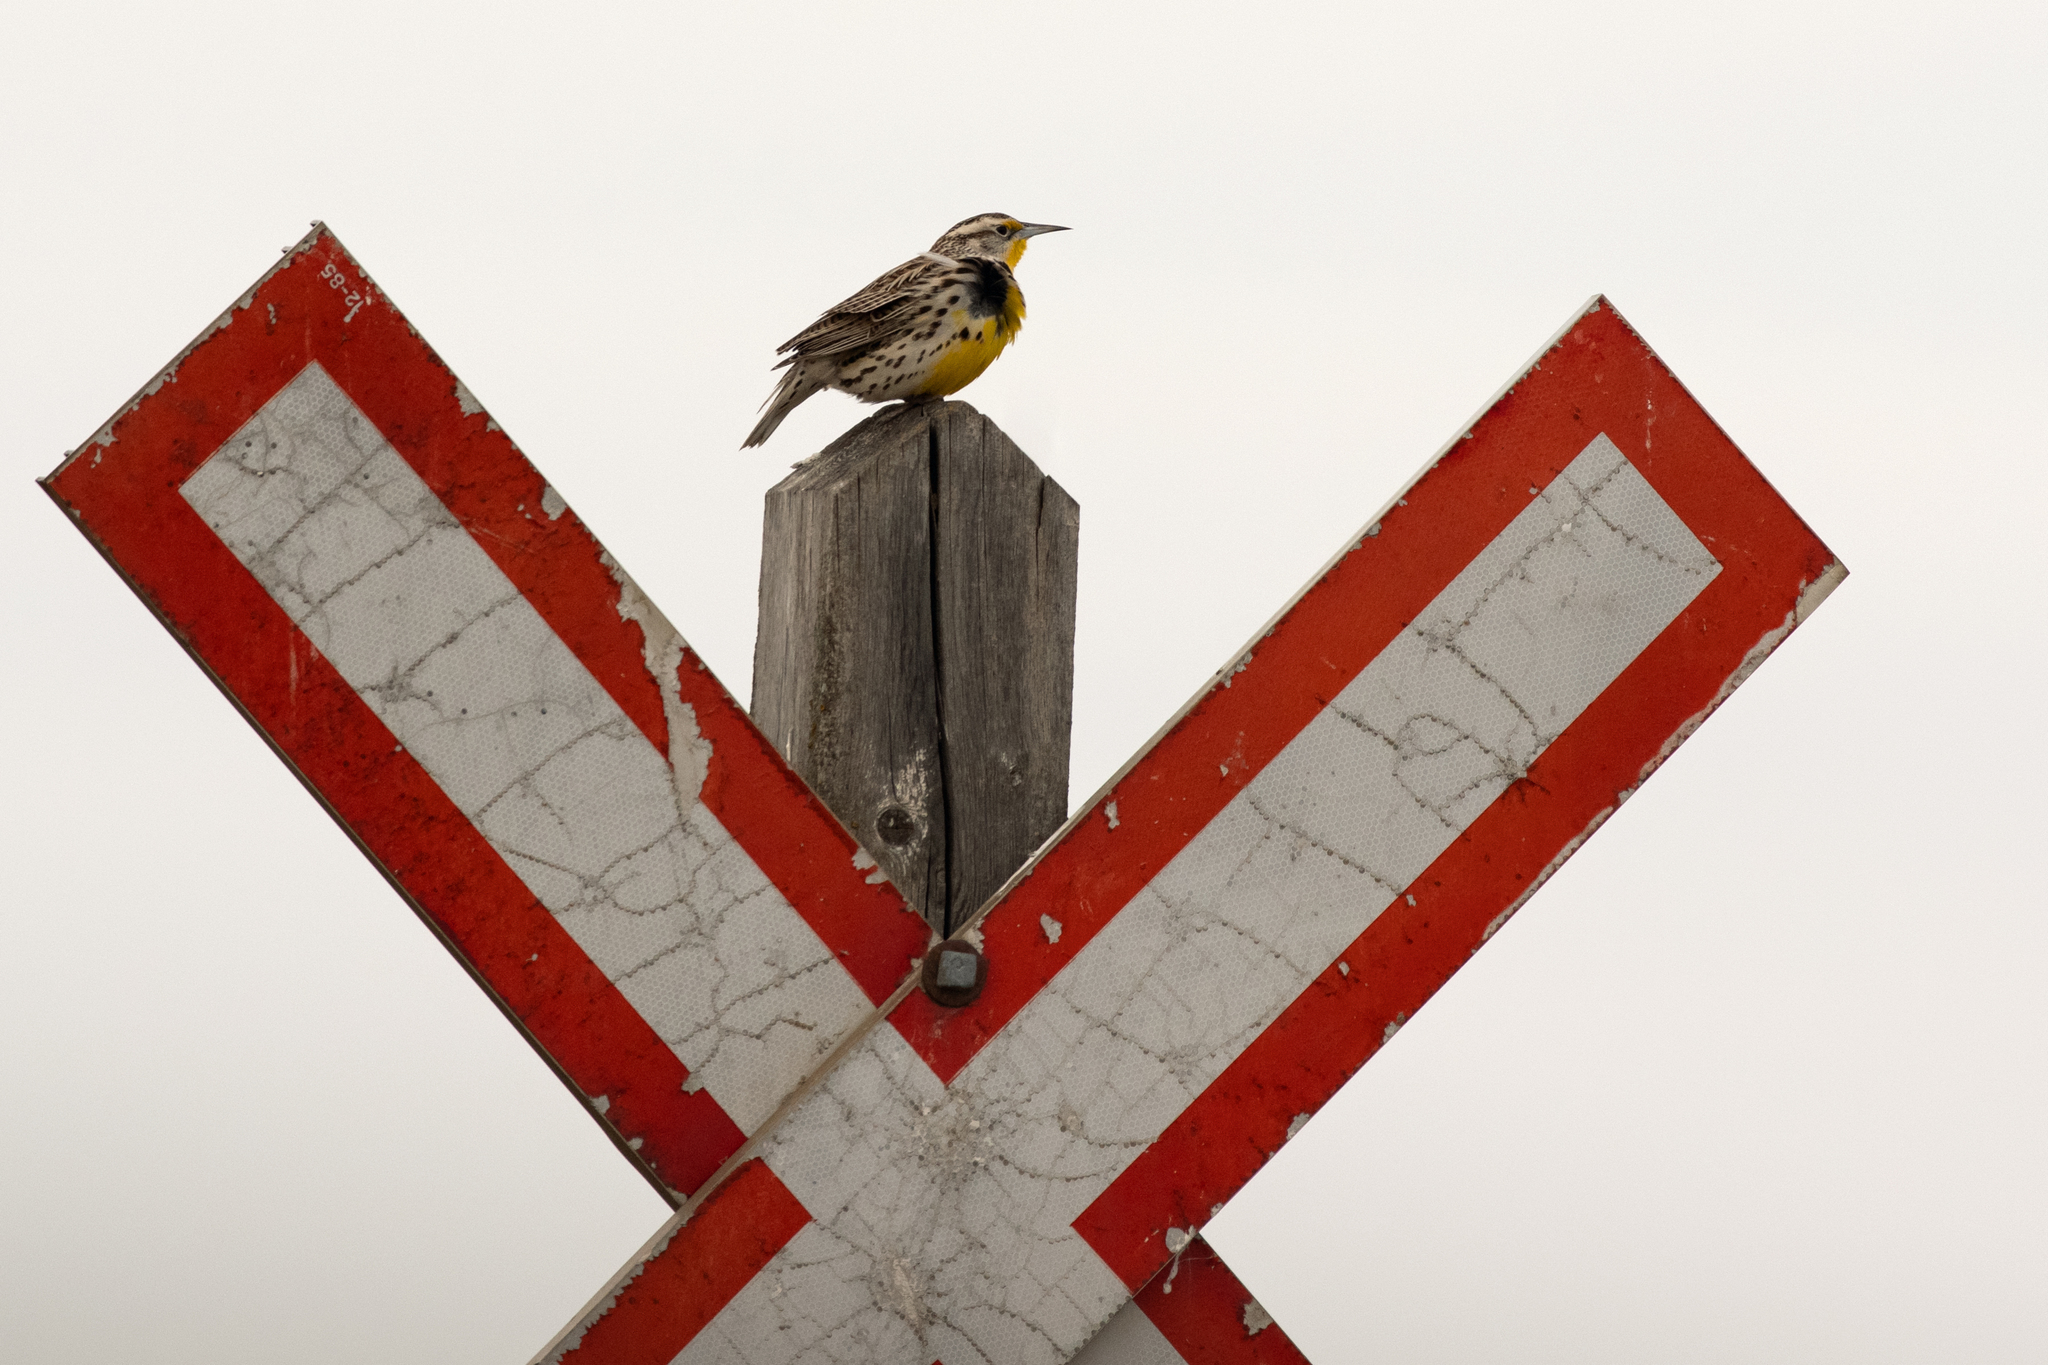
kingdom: Animalia
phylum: Chordata
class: Aves
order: Passeriformes
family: Icteridae
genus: Sturnella
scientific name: Sturnella neglecta
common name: Western meadowlark
